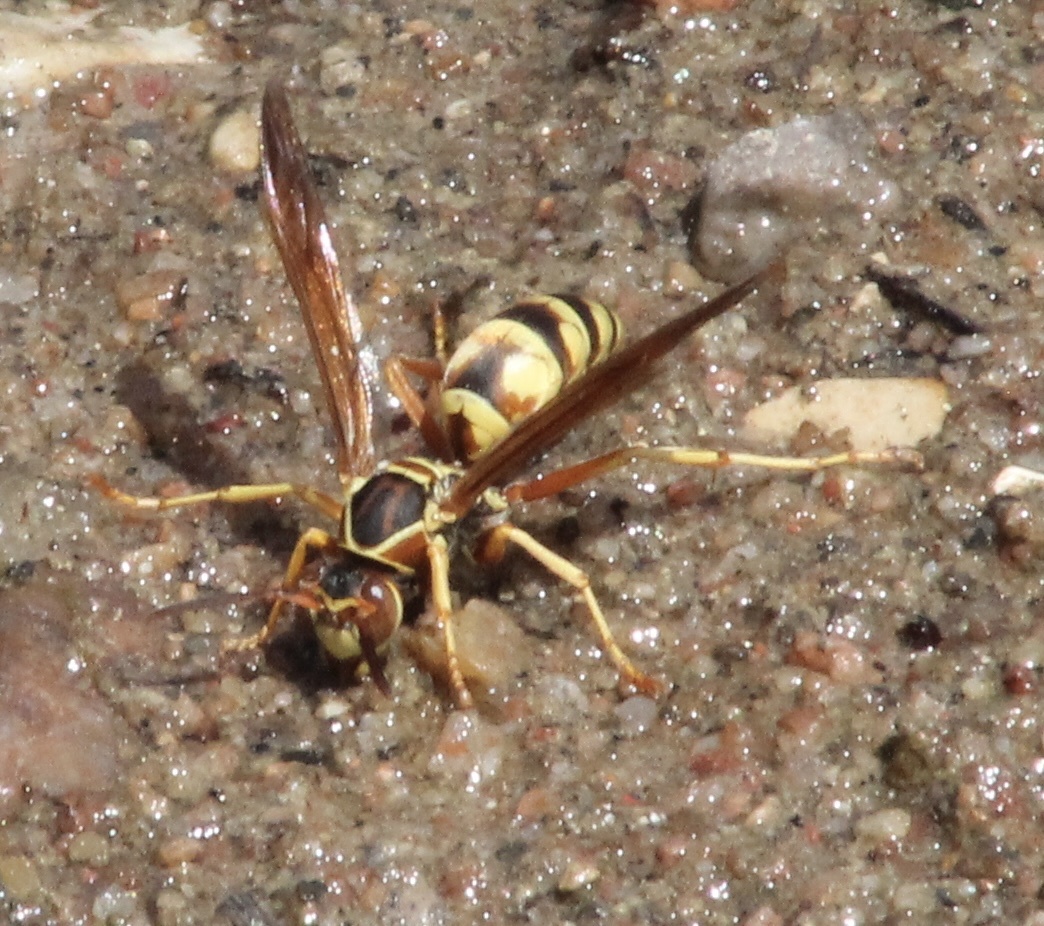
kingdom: Animalia
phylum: Arthropoda
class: Insecta
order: Hymenoptera
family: Eumenidae
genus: Polistes
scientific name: Polistes aurifer
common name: Paper wasp
